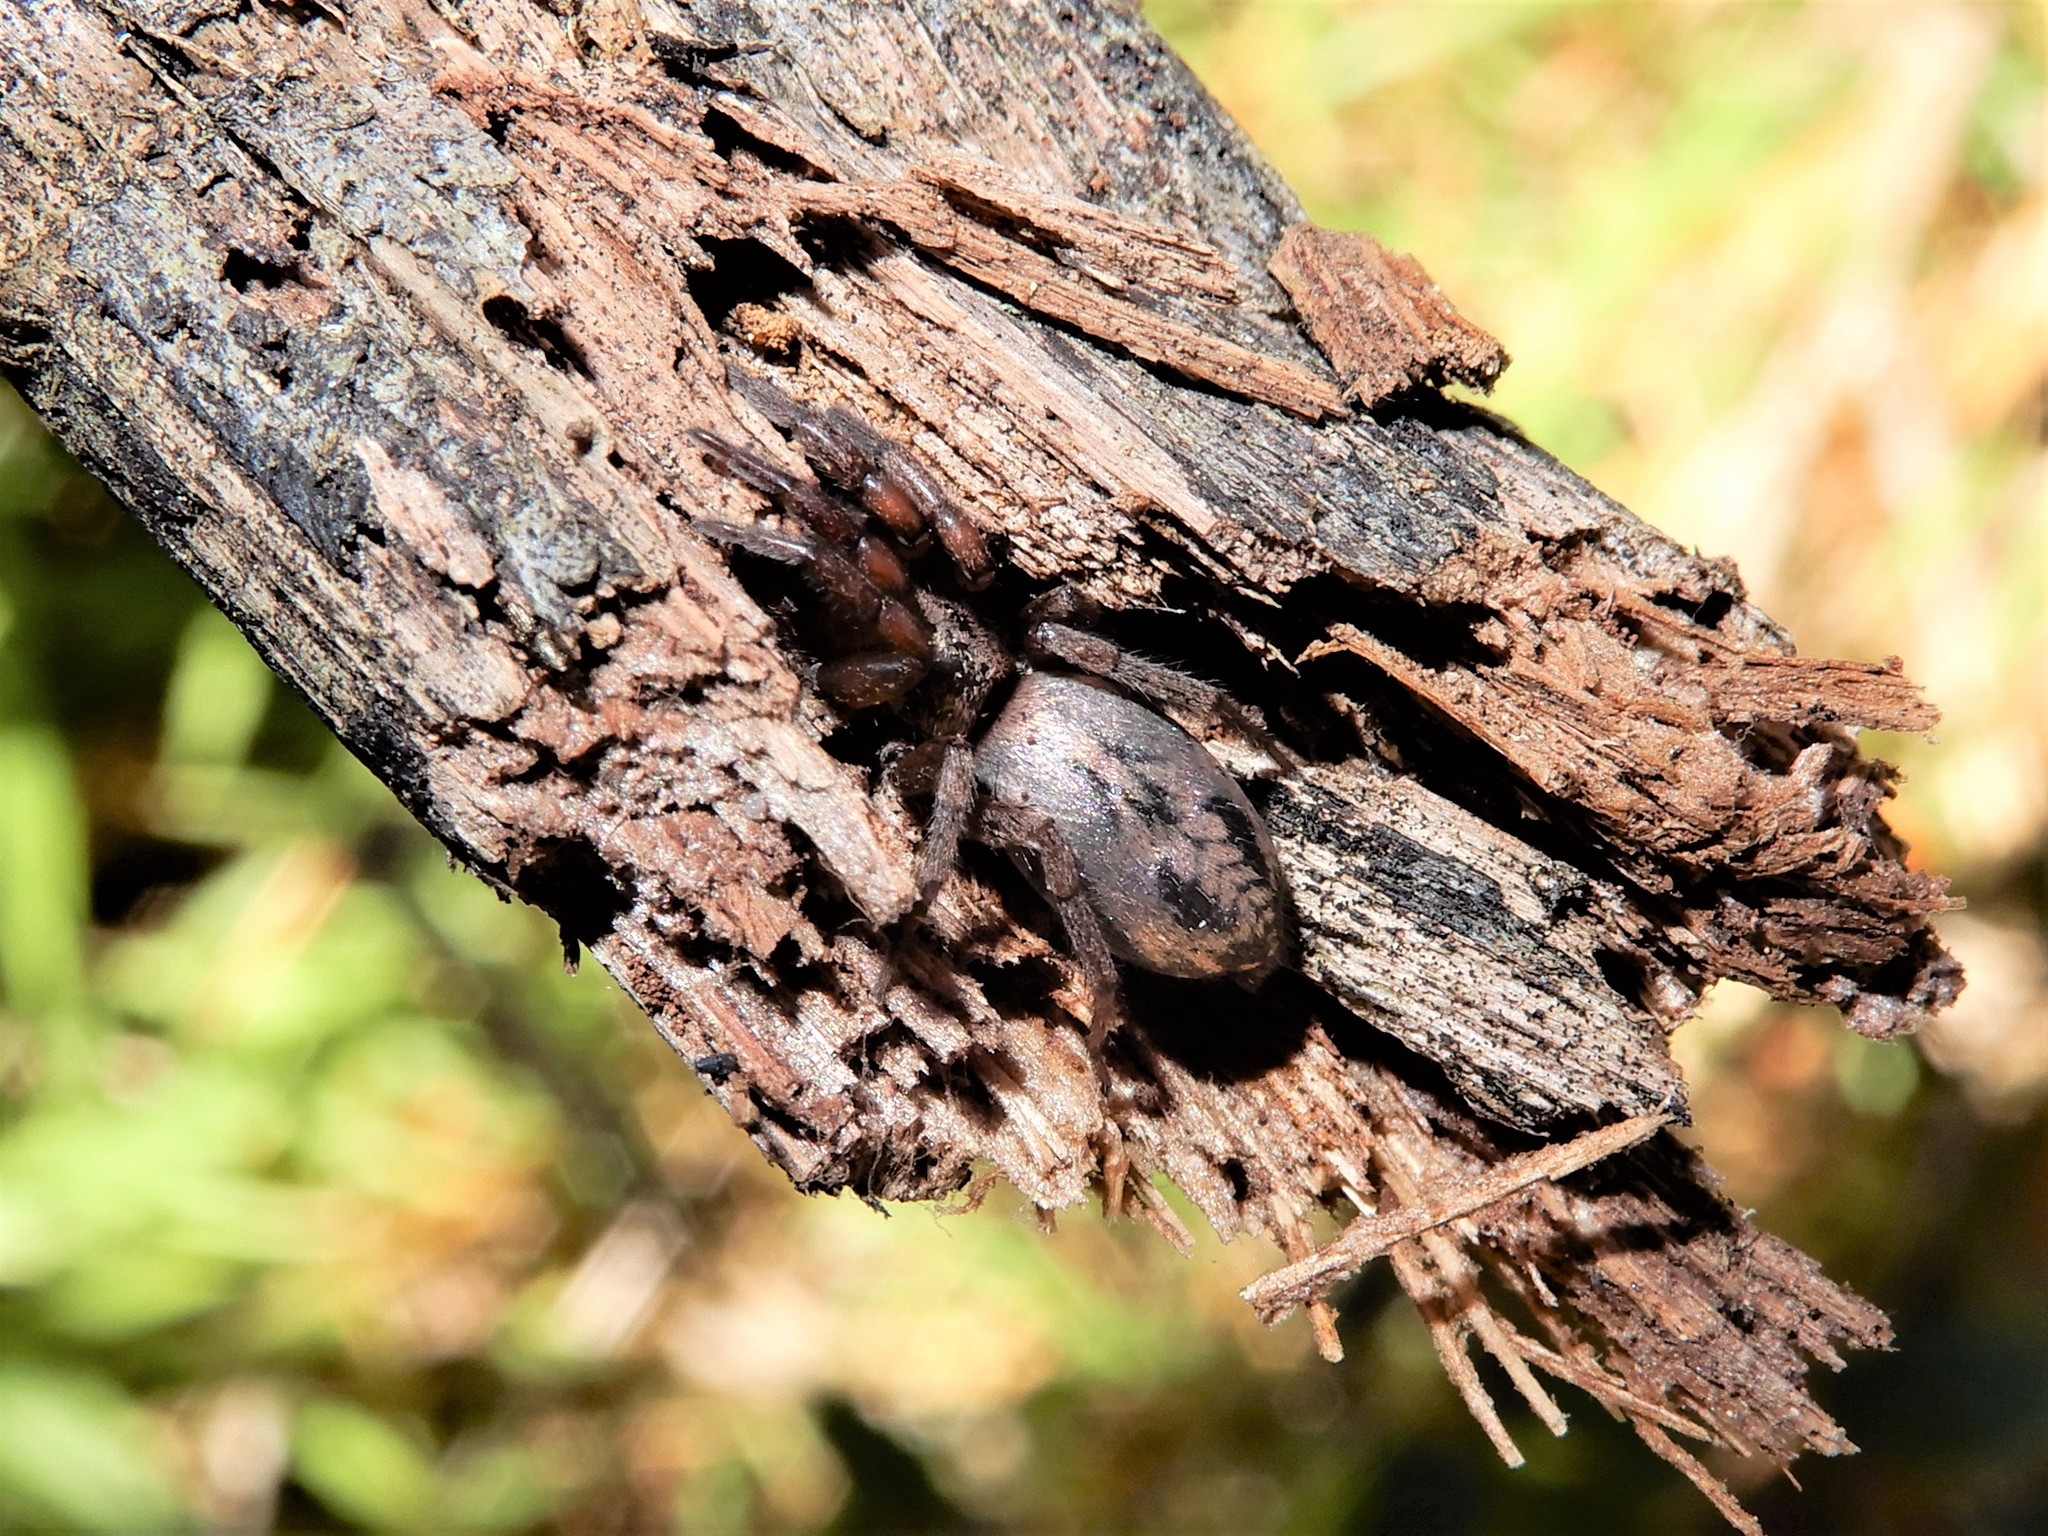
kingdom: Animalia
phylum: Arthropoda
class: Arachnida
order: Araneae
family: Gnaphosidae
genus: Scotophaeus
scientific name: Scotophaeus pretiosus
